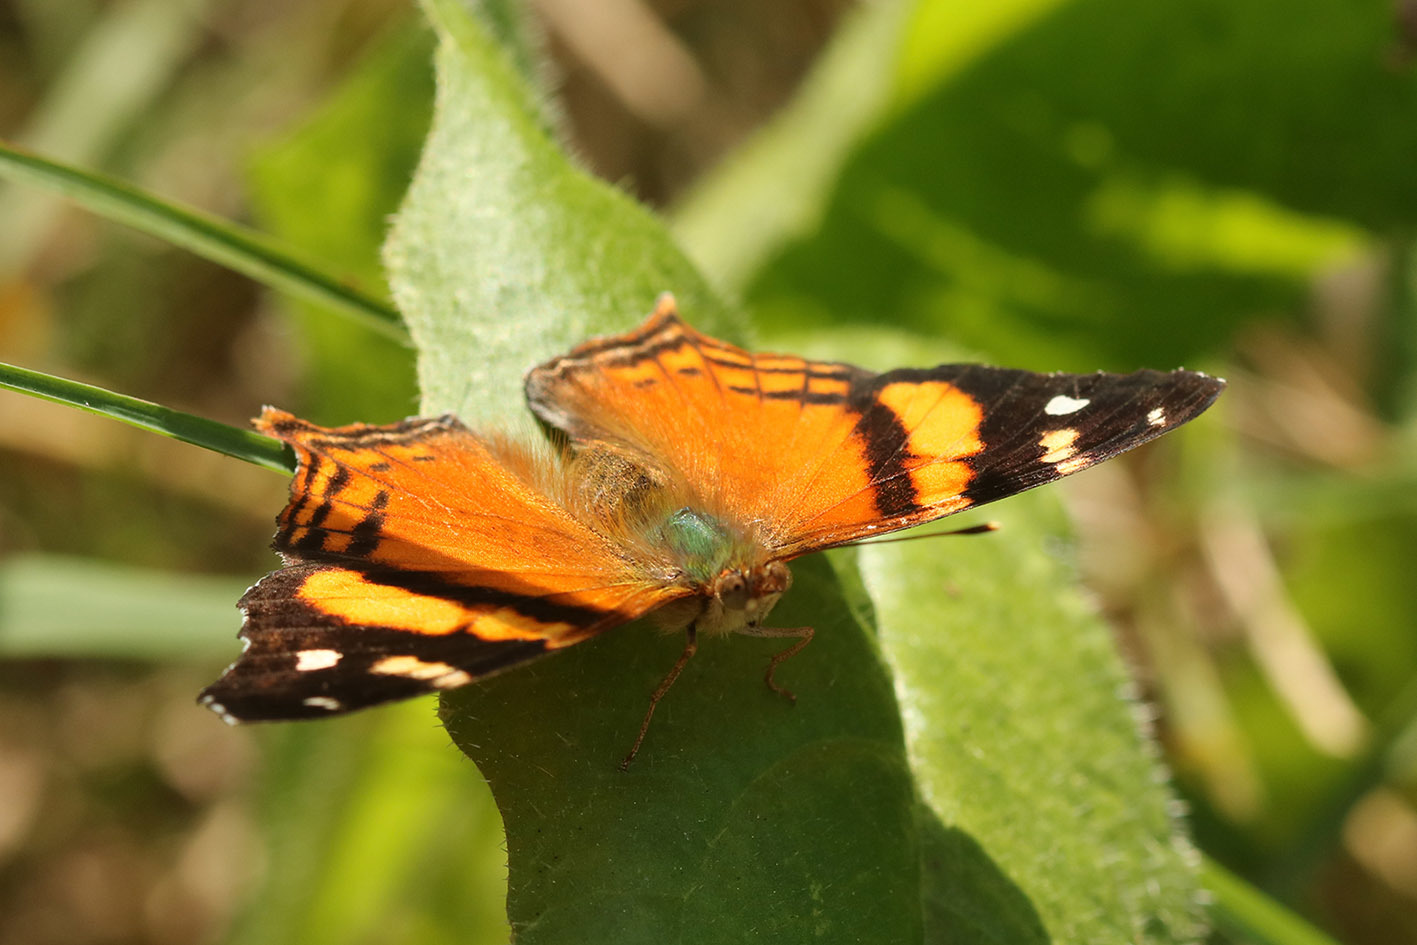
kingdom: Animalia
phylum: Arthropoda
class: Insecta
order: Lepidoptera
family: Nymphalidae
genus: Hypanartia
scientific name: Hypanartia bella
